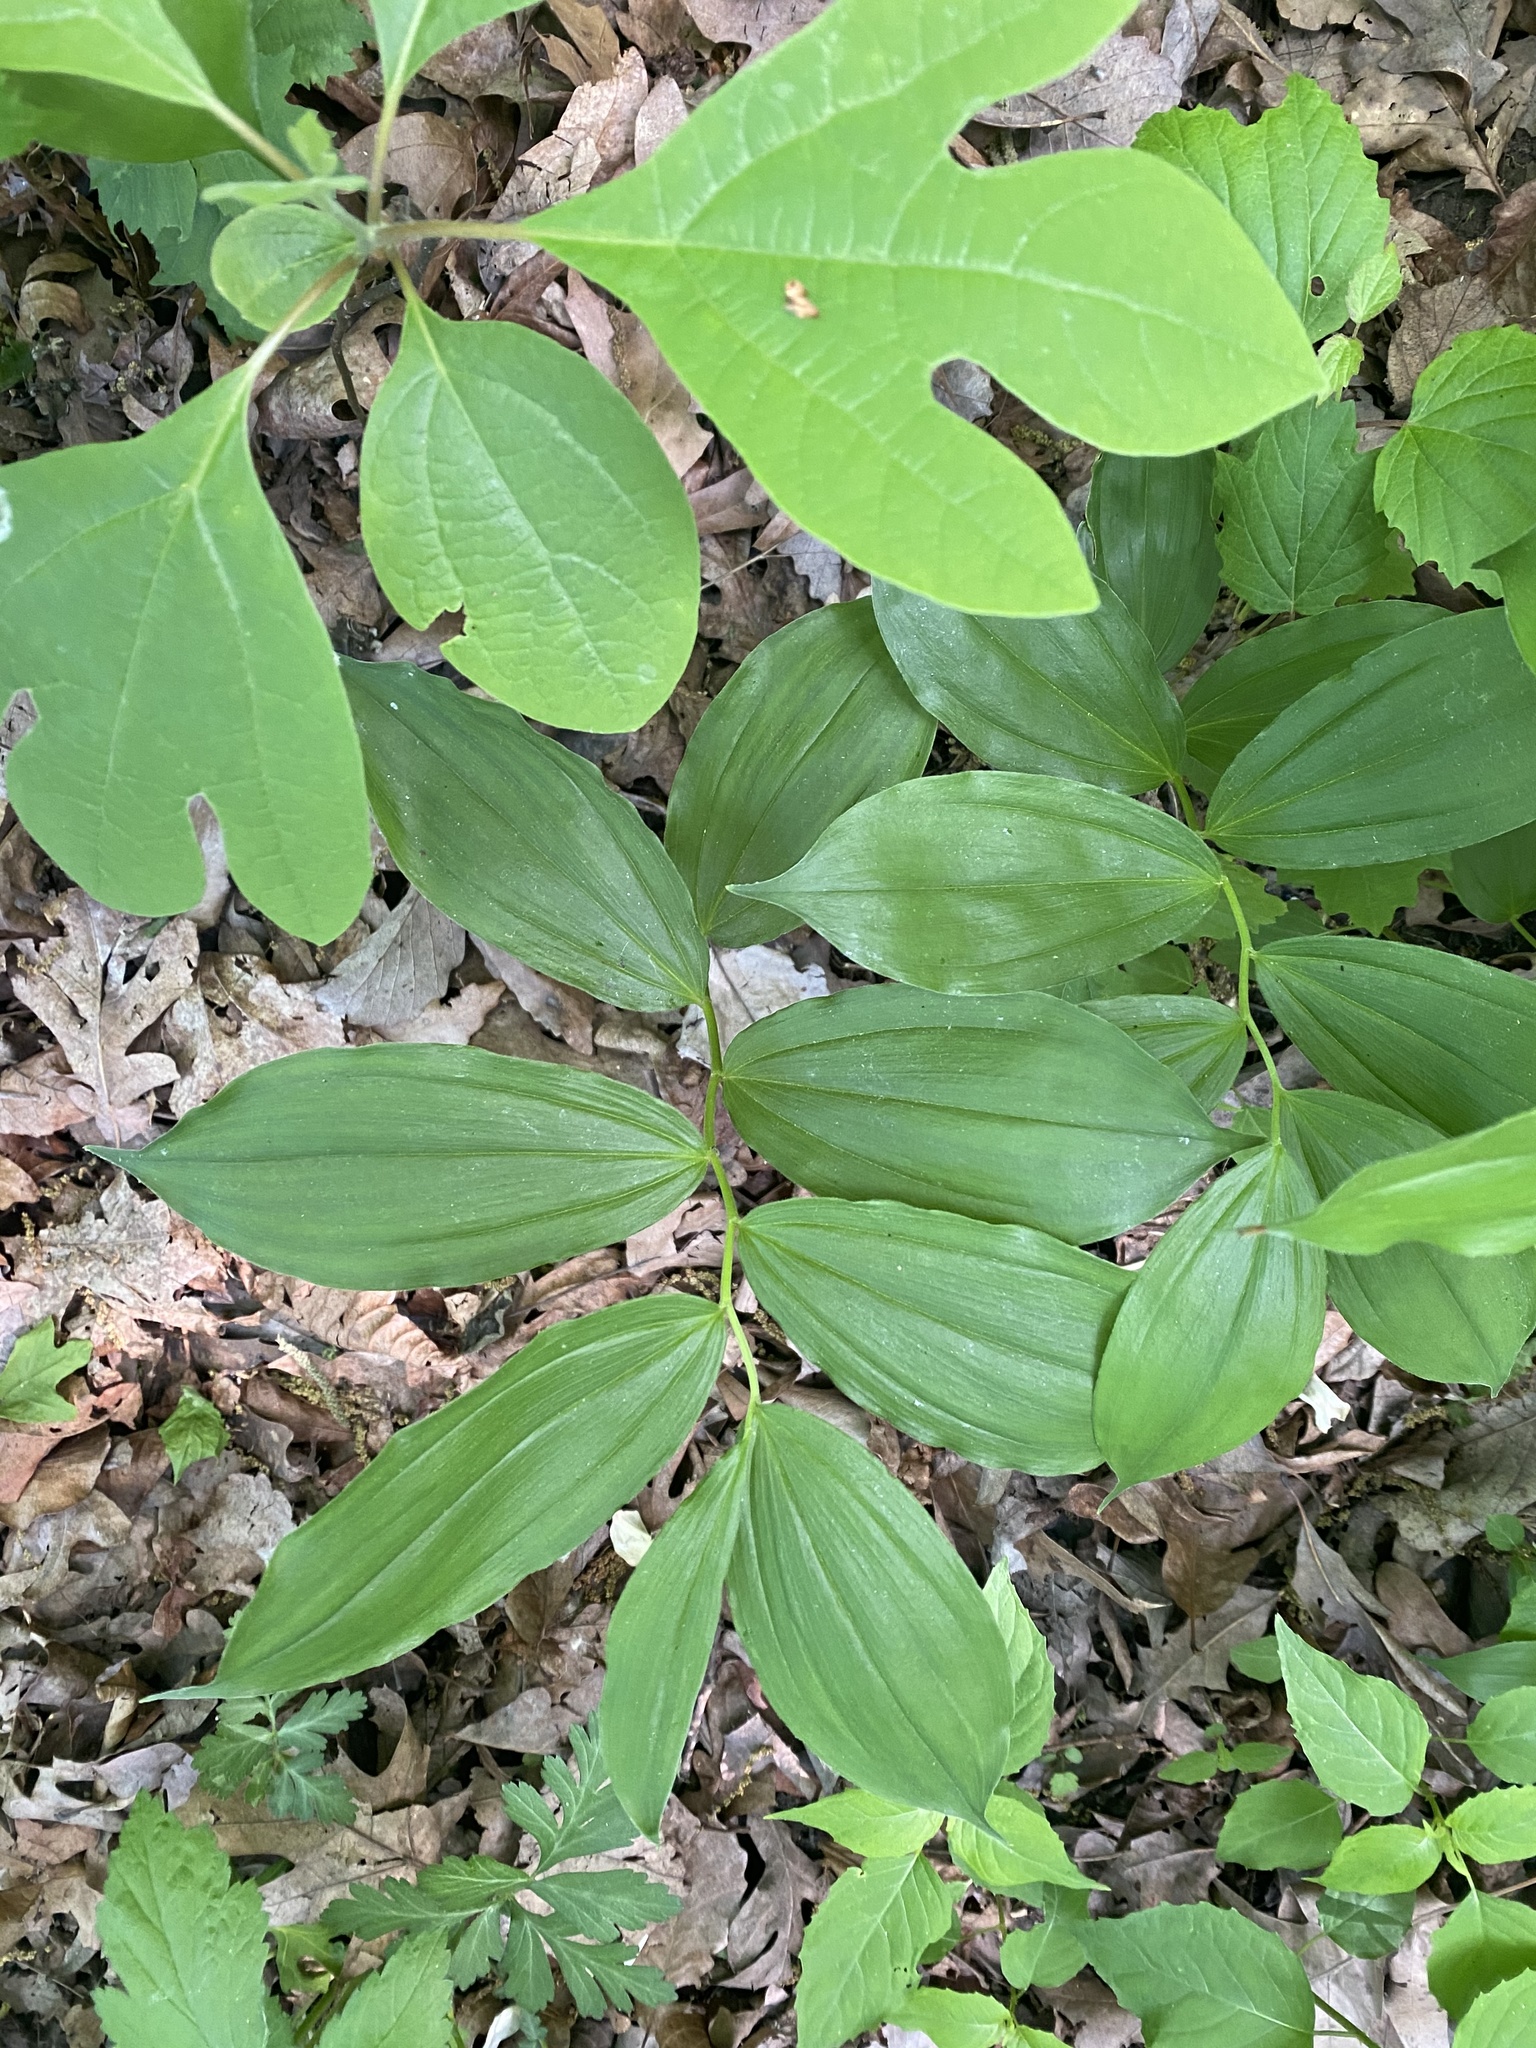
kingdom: Plantae
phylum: Tracheophyta
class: Liliopsida
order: Asparagales
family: Asparagaceae
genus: Maianthemum
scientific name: Maianthemum racemosum
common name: False spikenard
